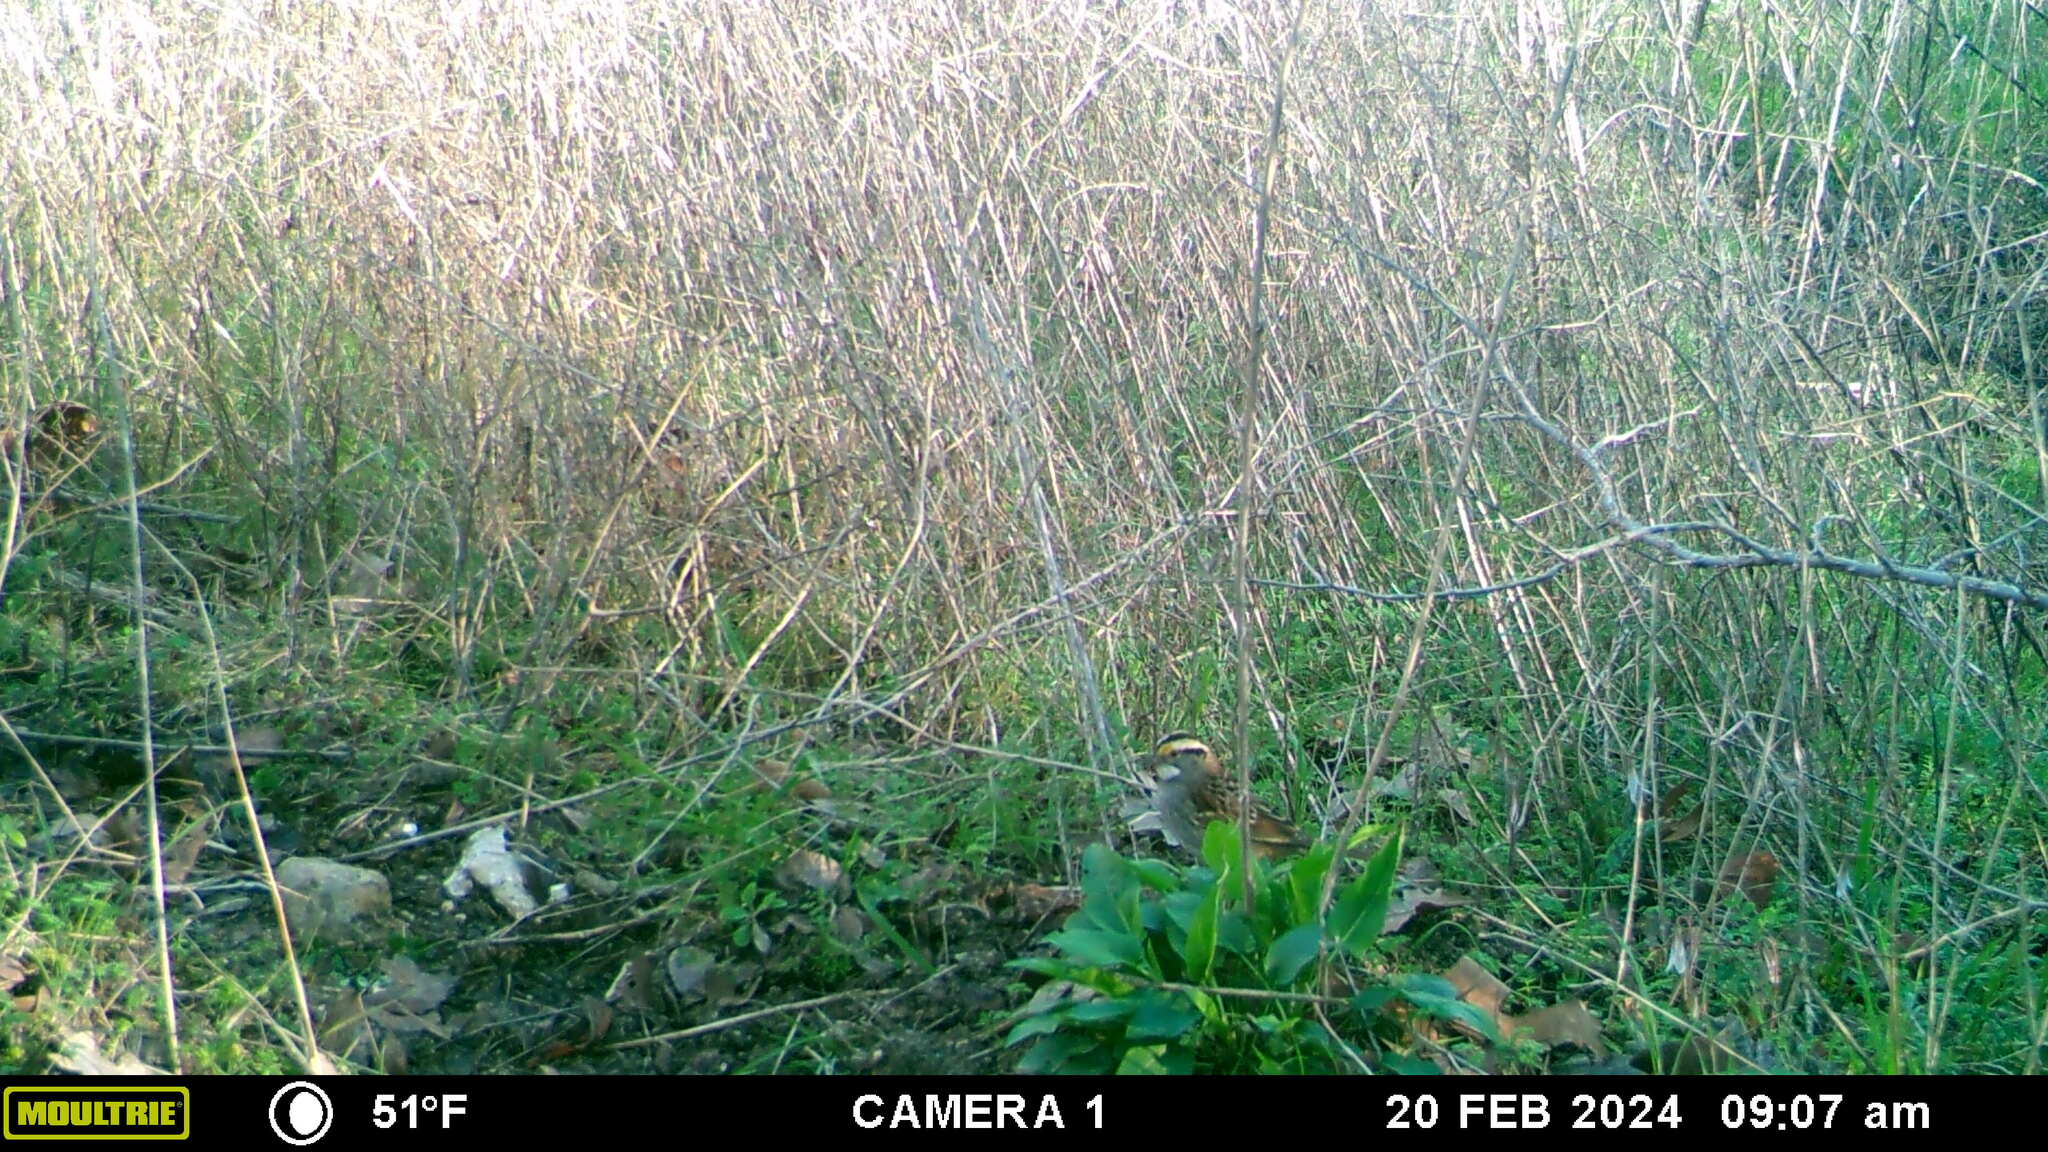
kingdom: Animalia
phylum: Chordata
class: Aves
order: Passeriformes
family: Passerellidae
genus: Zonotrichia
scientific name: Zonotrichia albicollis
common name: White-throated sparrow
